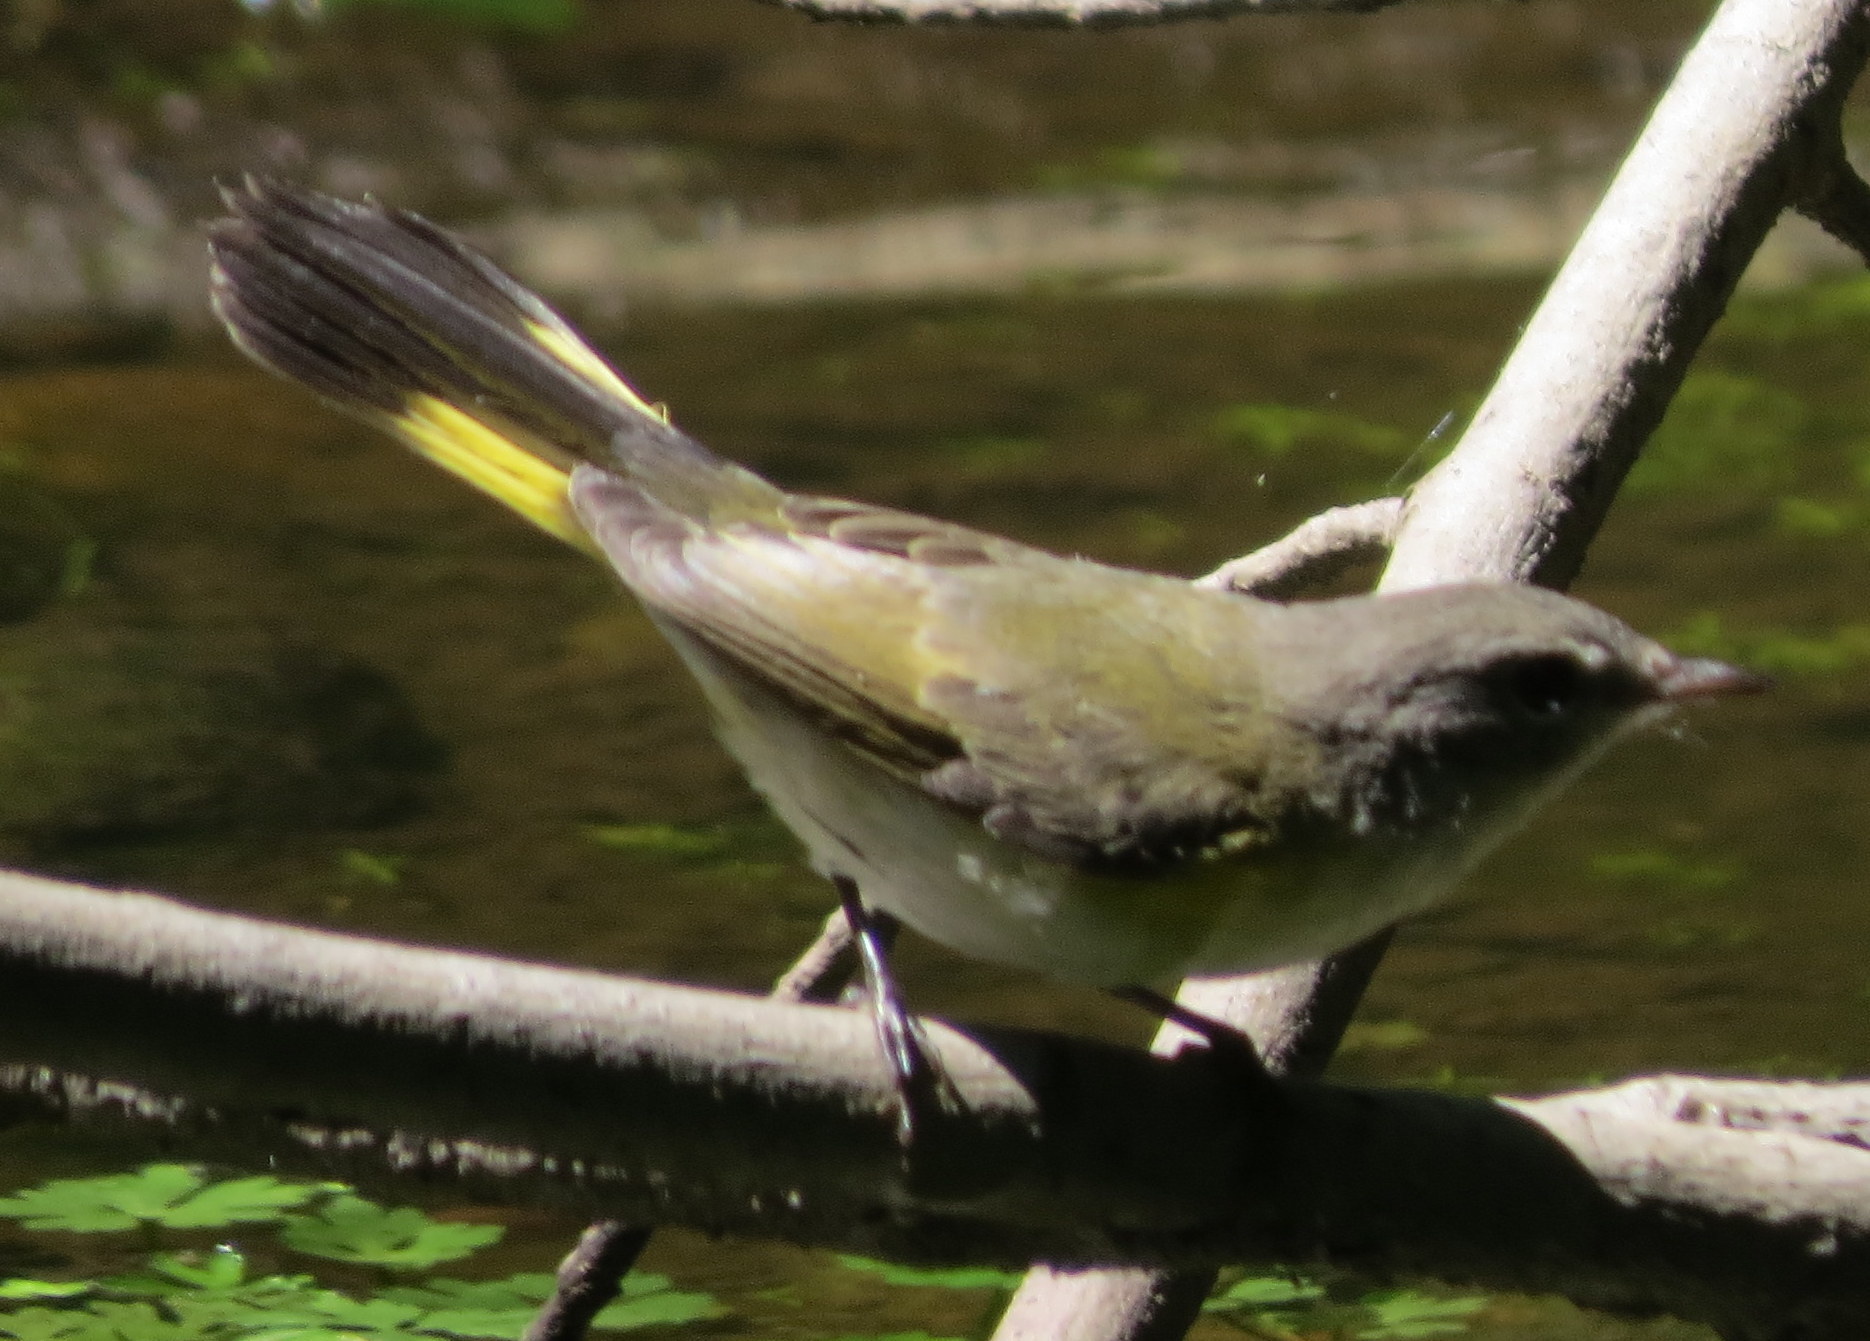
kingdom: Animalia
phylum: Chordata
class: Aves
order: Passeriformes
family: Parulidae
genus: Setophaga
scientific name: Setophaga ruticilla
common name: American redstart
